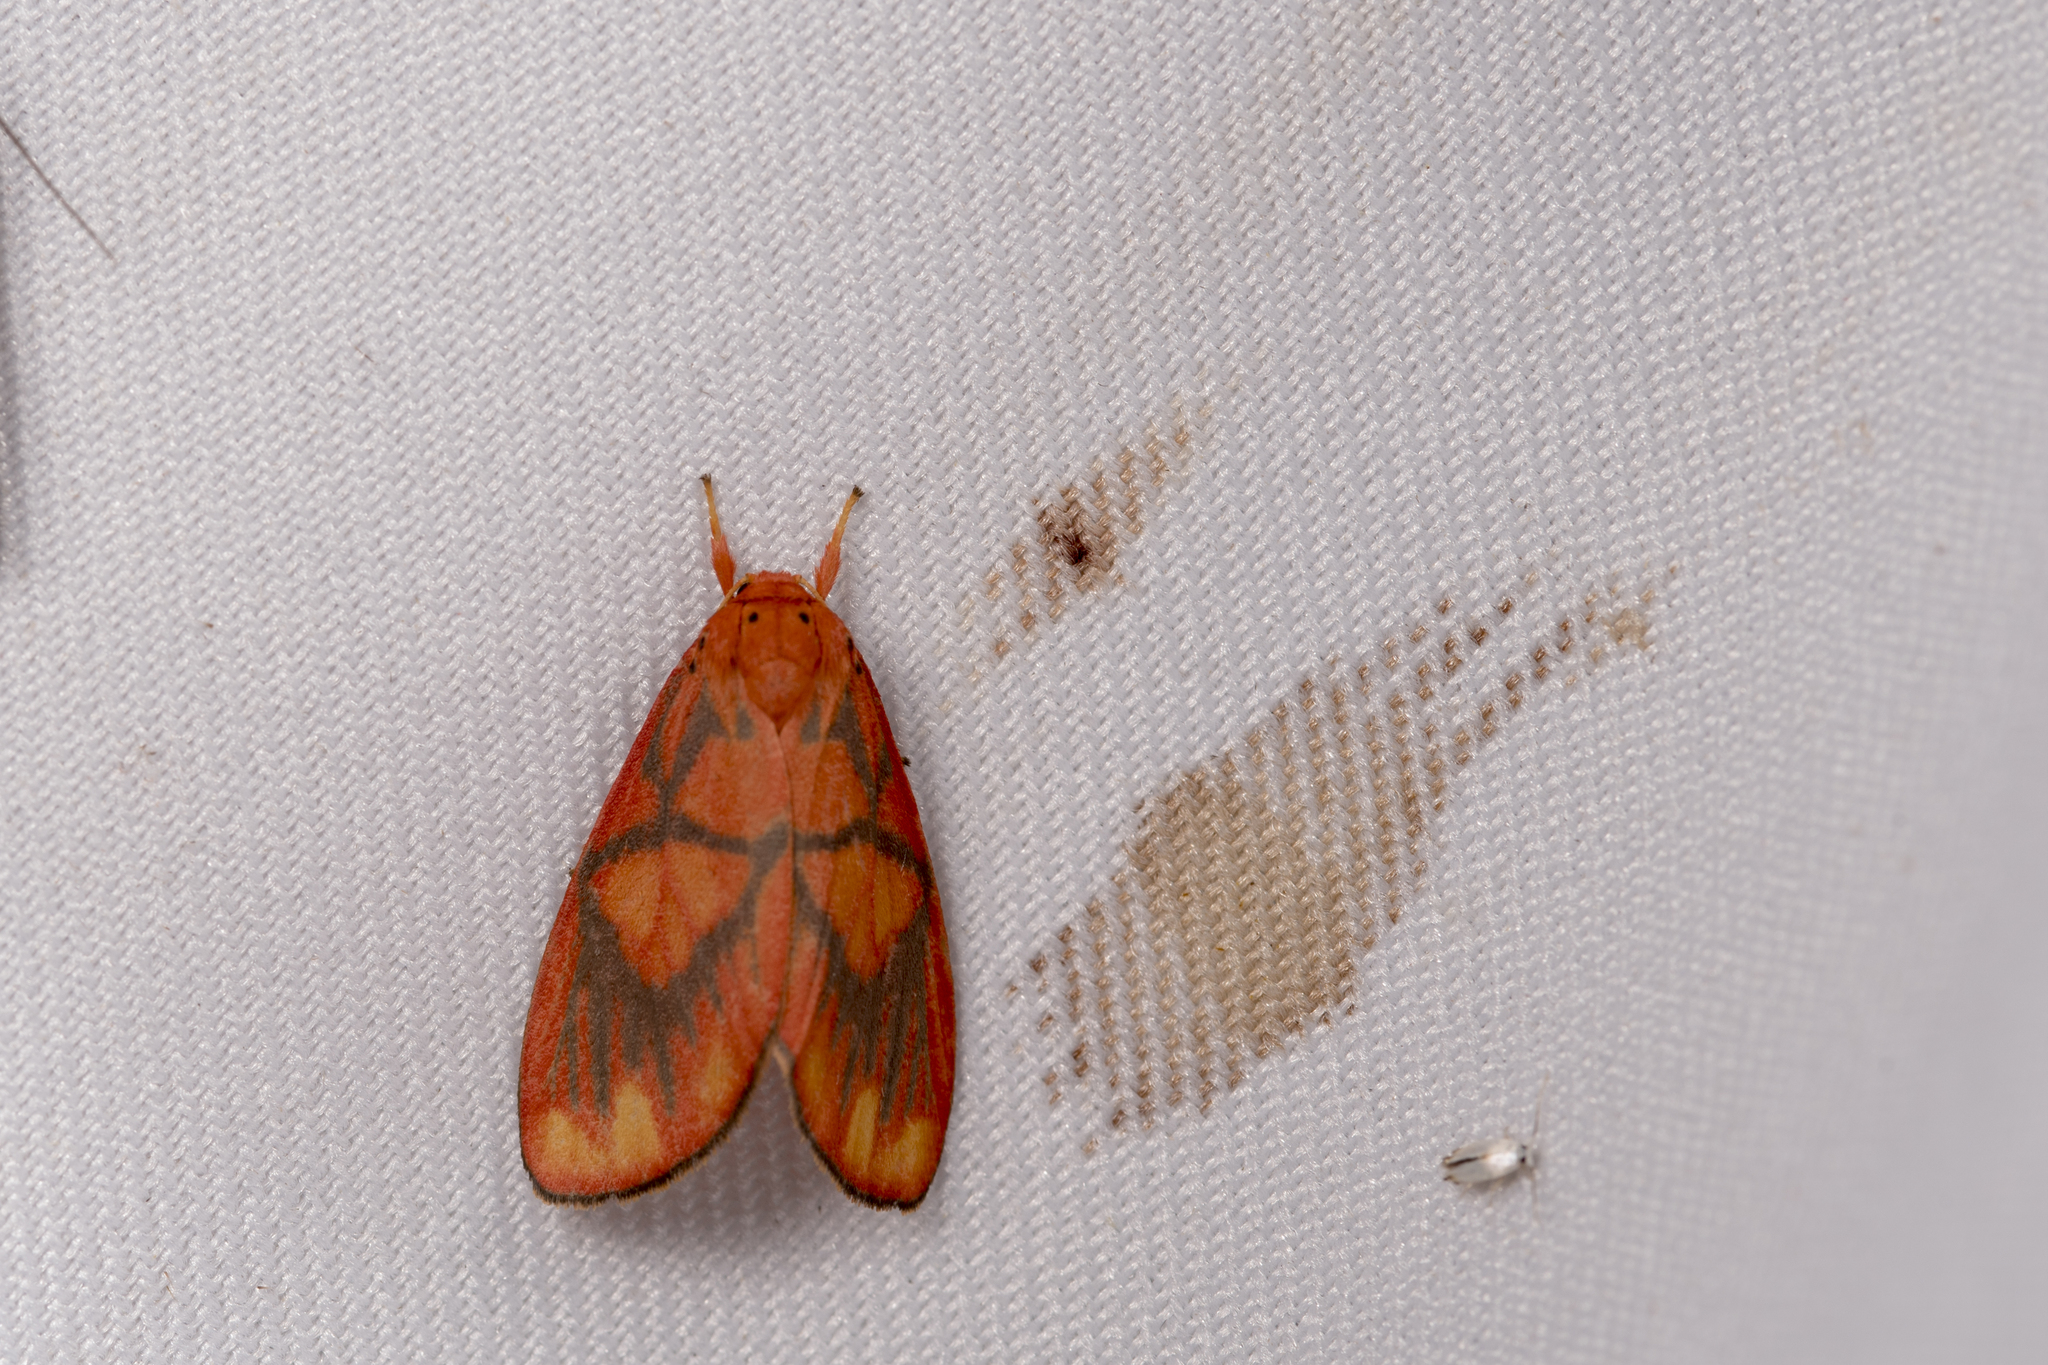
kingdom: Animalia
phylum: Arthropoda
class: Insecta
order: Lepidoptera
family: Erebidae
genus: Matsumursine
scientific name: Matsumursine horishanella
